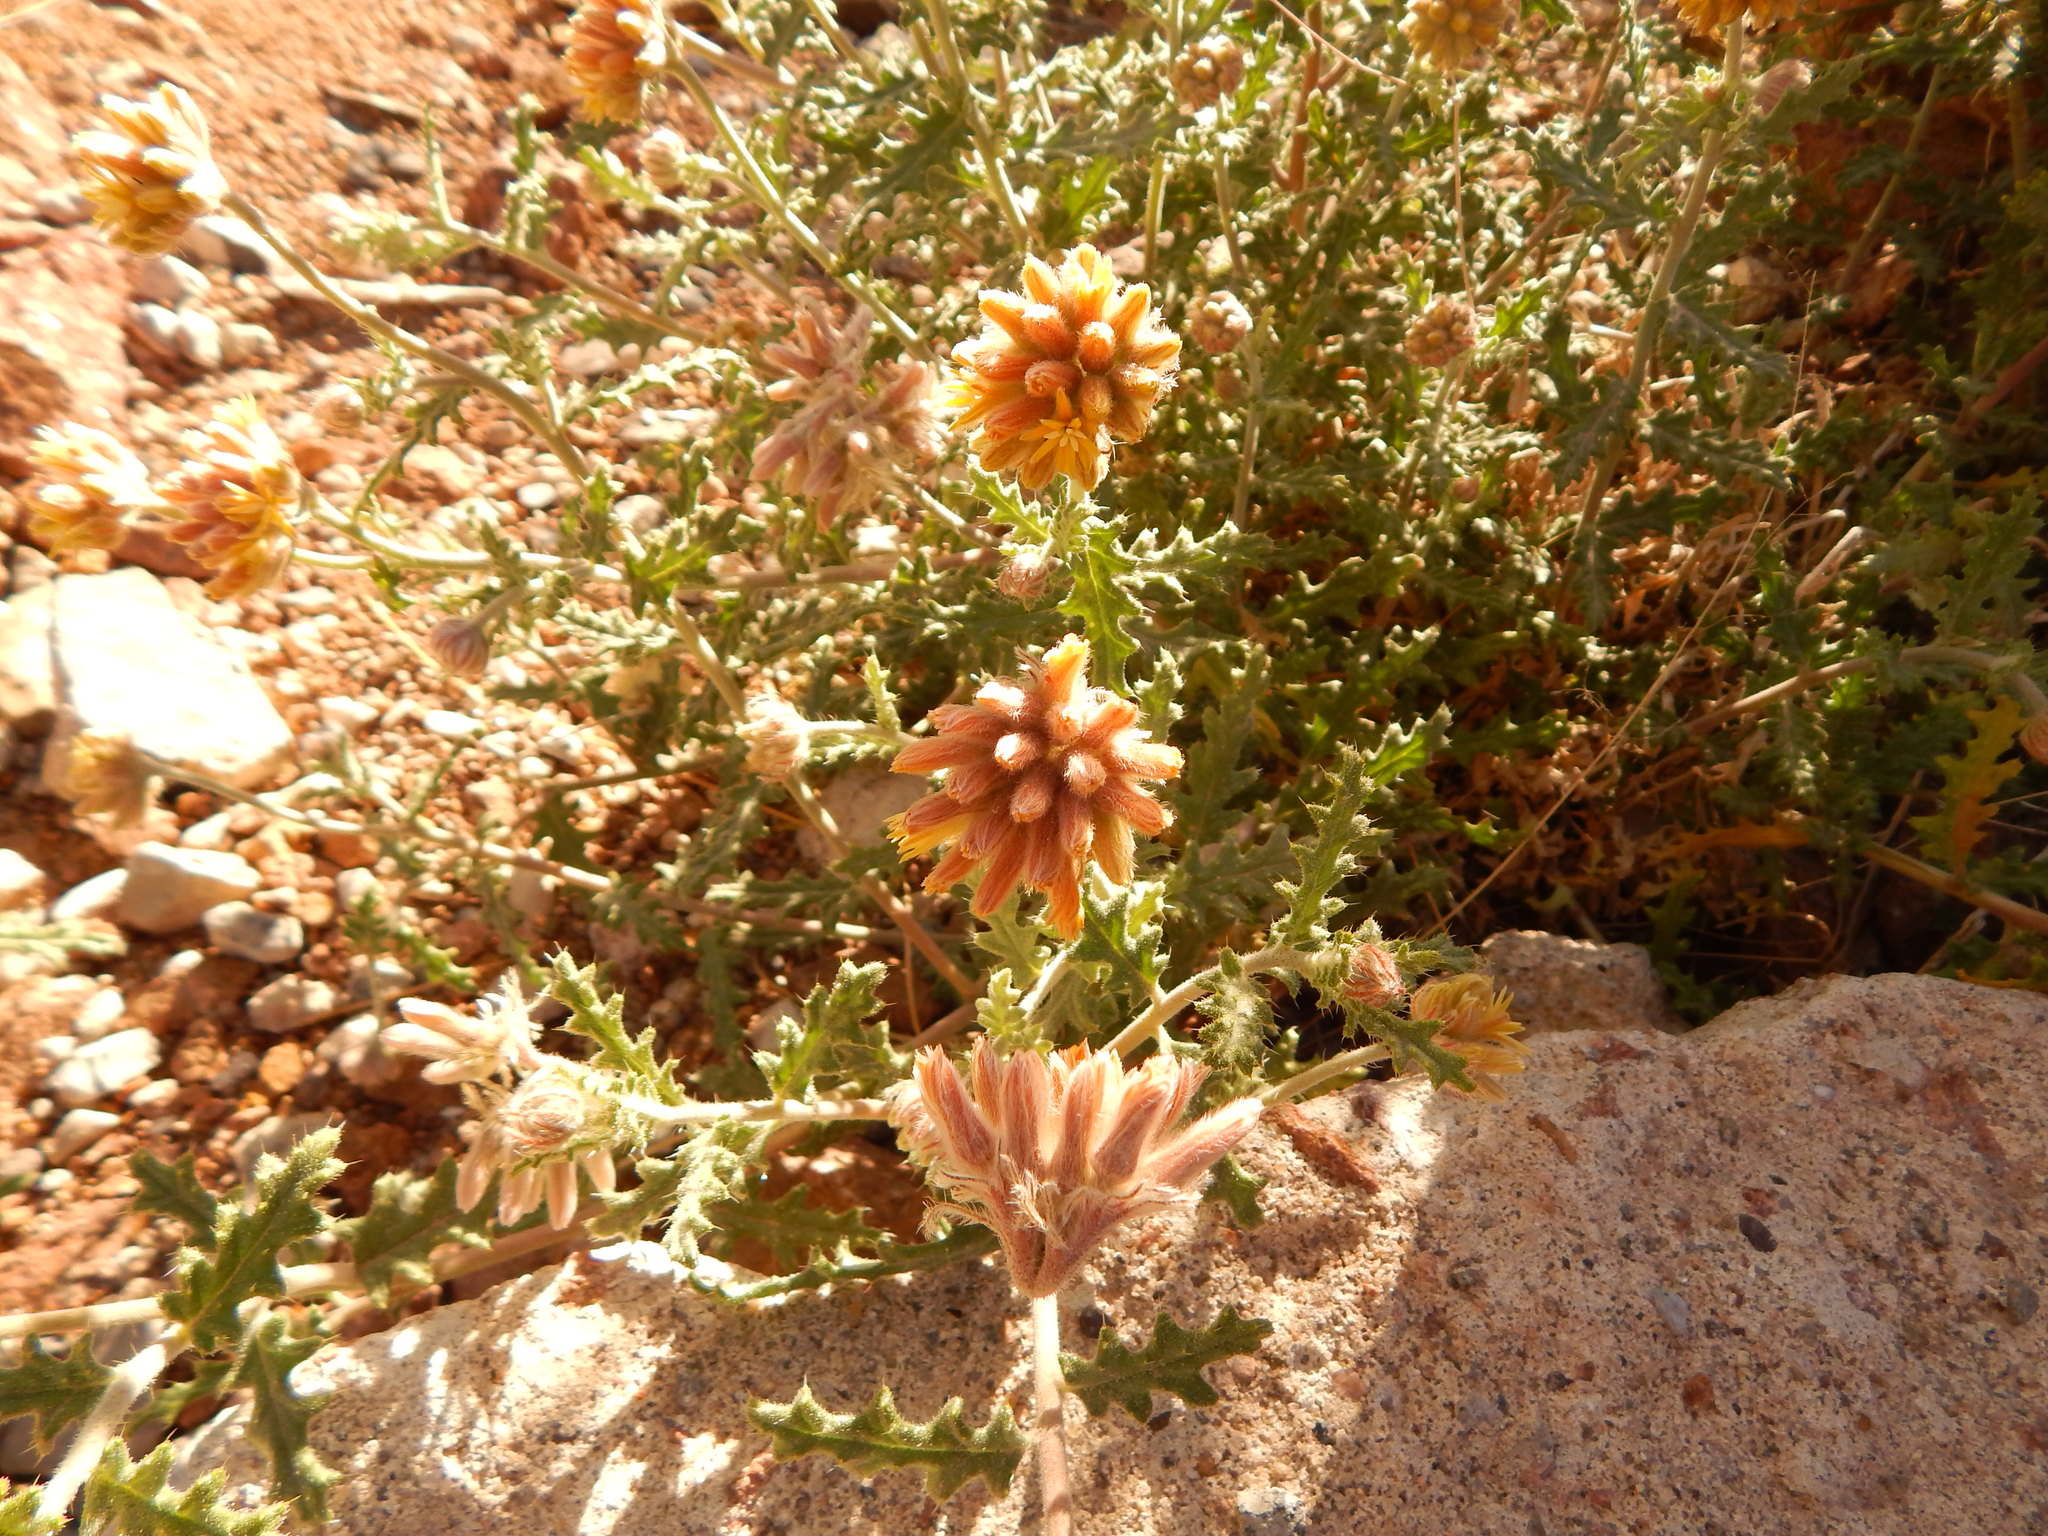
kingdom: Plantae
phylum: Tracheophyta
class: Magnoliopsida
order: Cornales
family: Loasaceae
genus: Cevallia
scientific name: Cevallia sinuata
